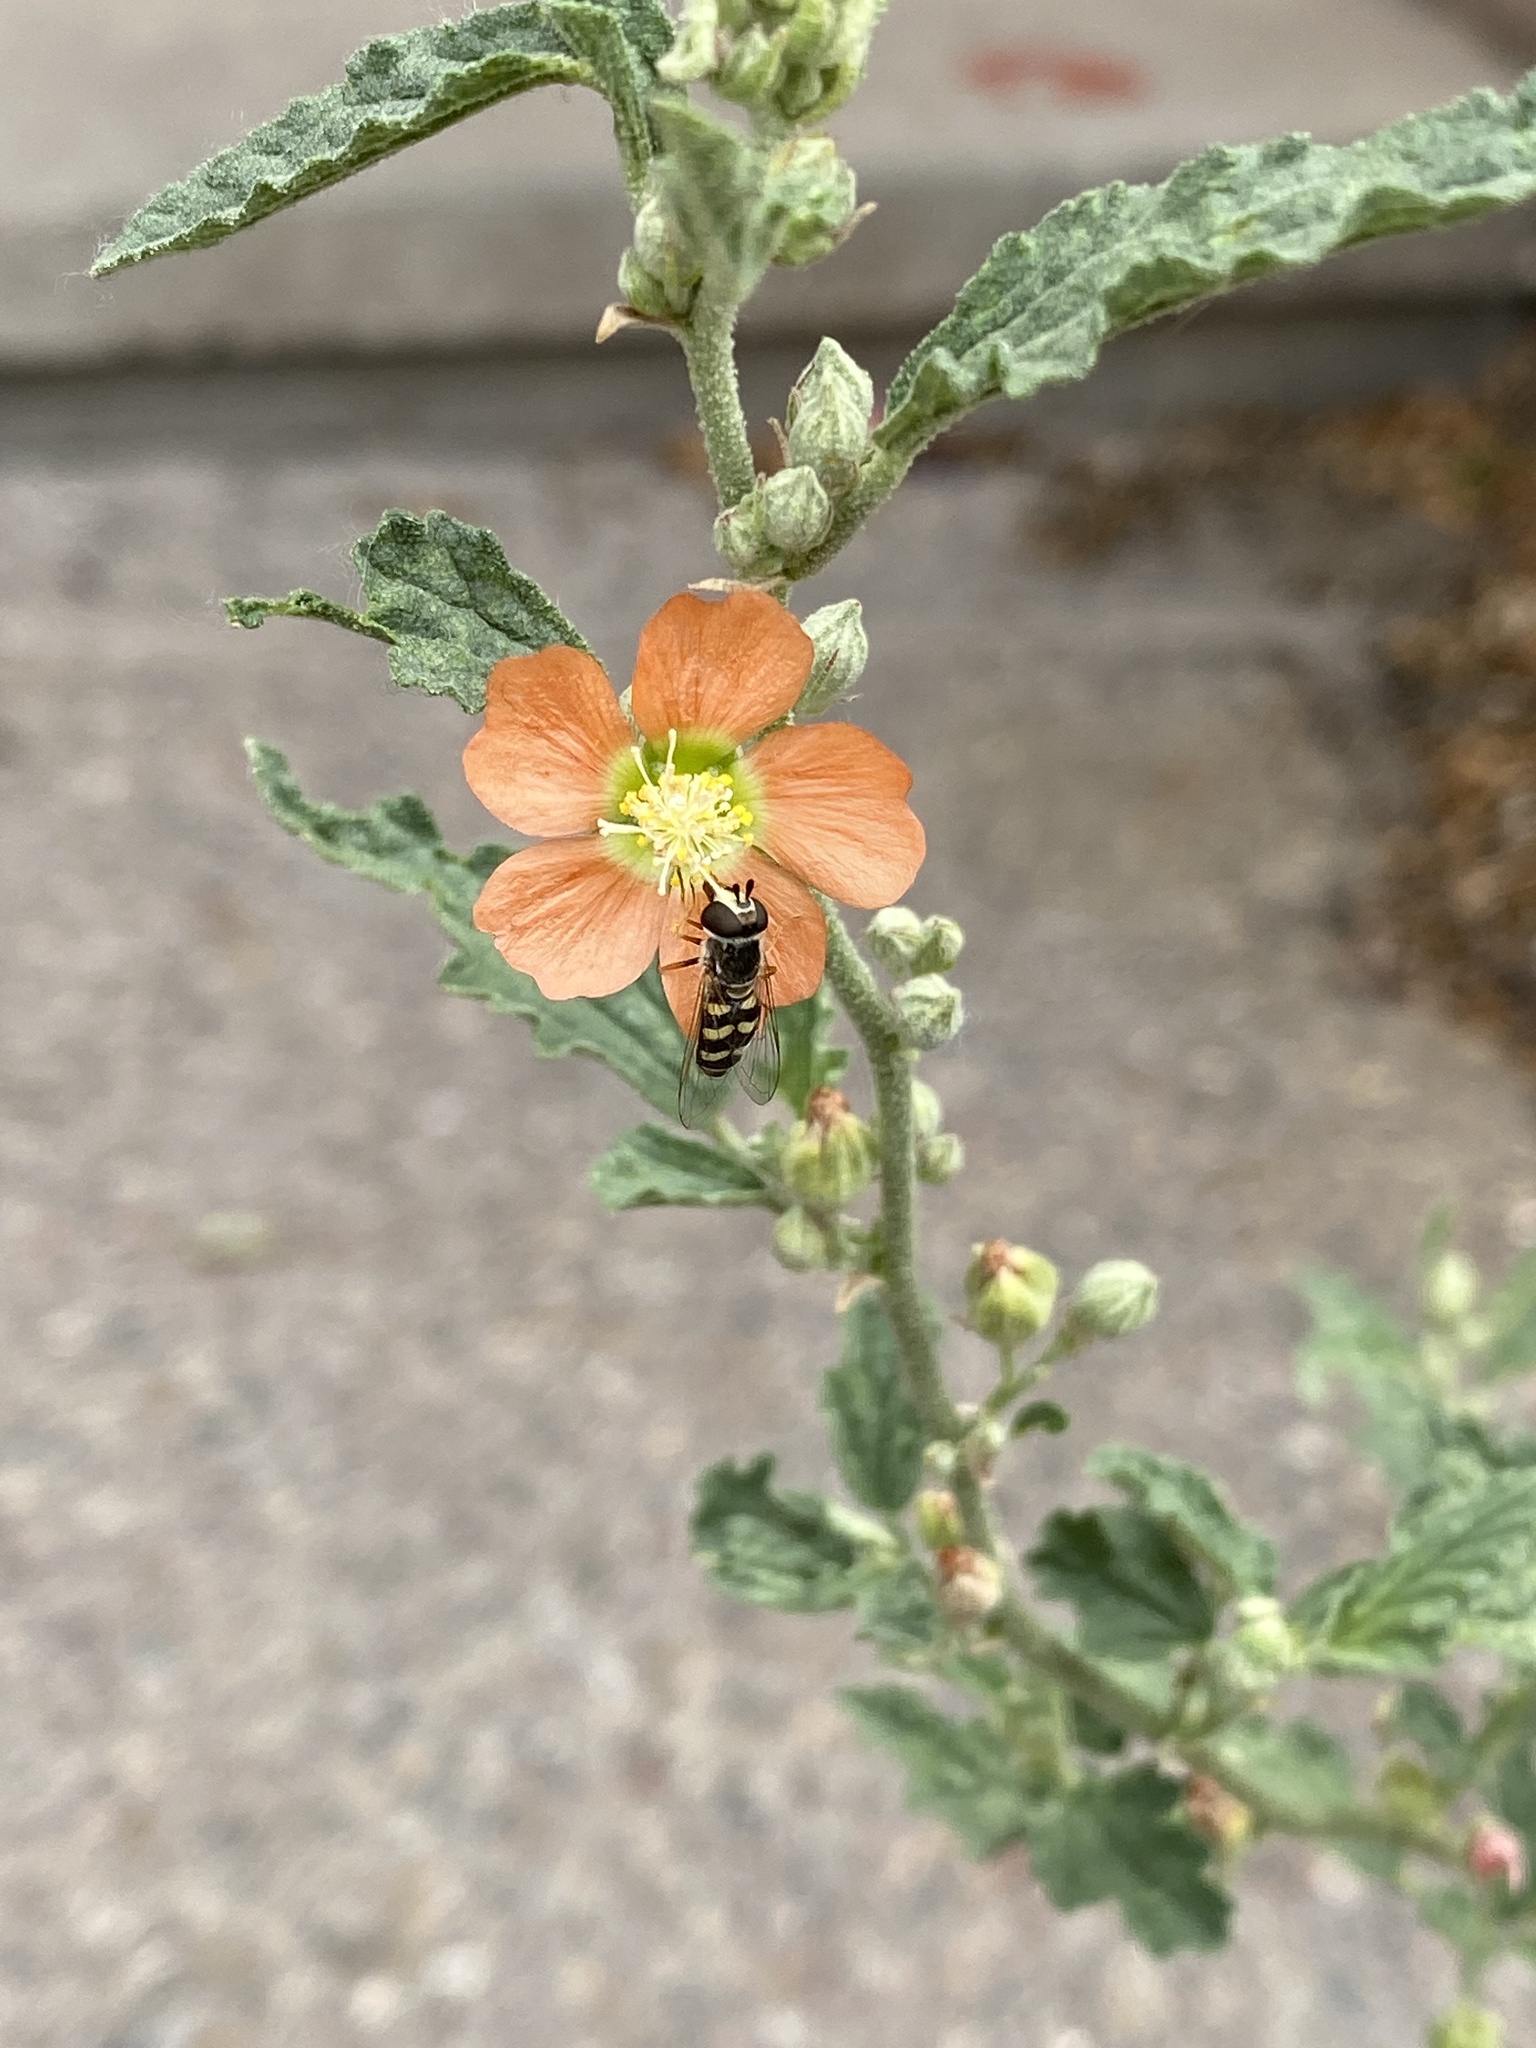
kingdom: Animalia
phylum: Arthropoda
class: Insecta
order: Diptera
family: Syrphidae
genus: Eupeodes
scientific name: Eupeodes volucris
